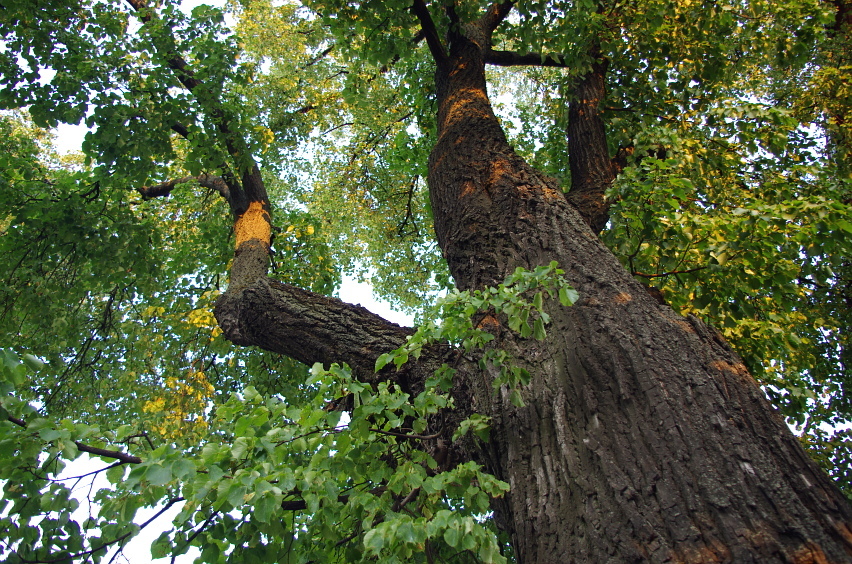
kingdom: Plantae
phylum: Tracheophyta
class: Magnoliopsida
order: Malvales
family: Malvaceae
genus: Tilia
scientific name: Tilia cordata
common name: Small-leaved lime
